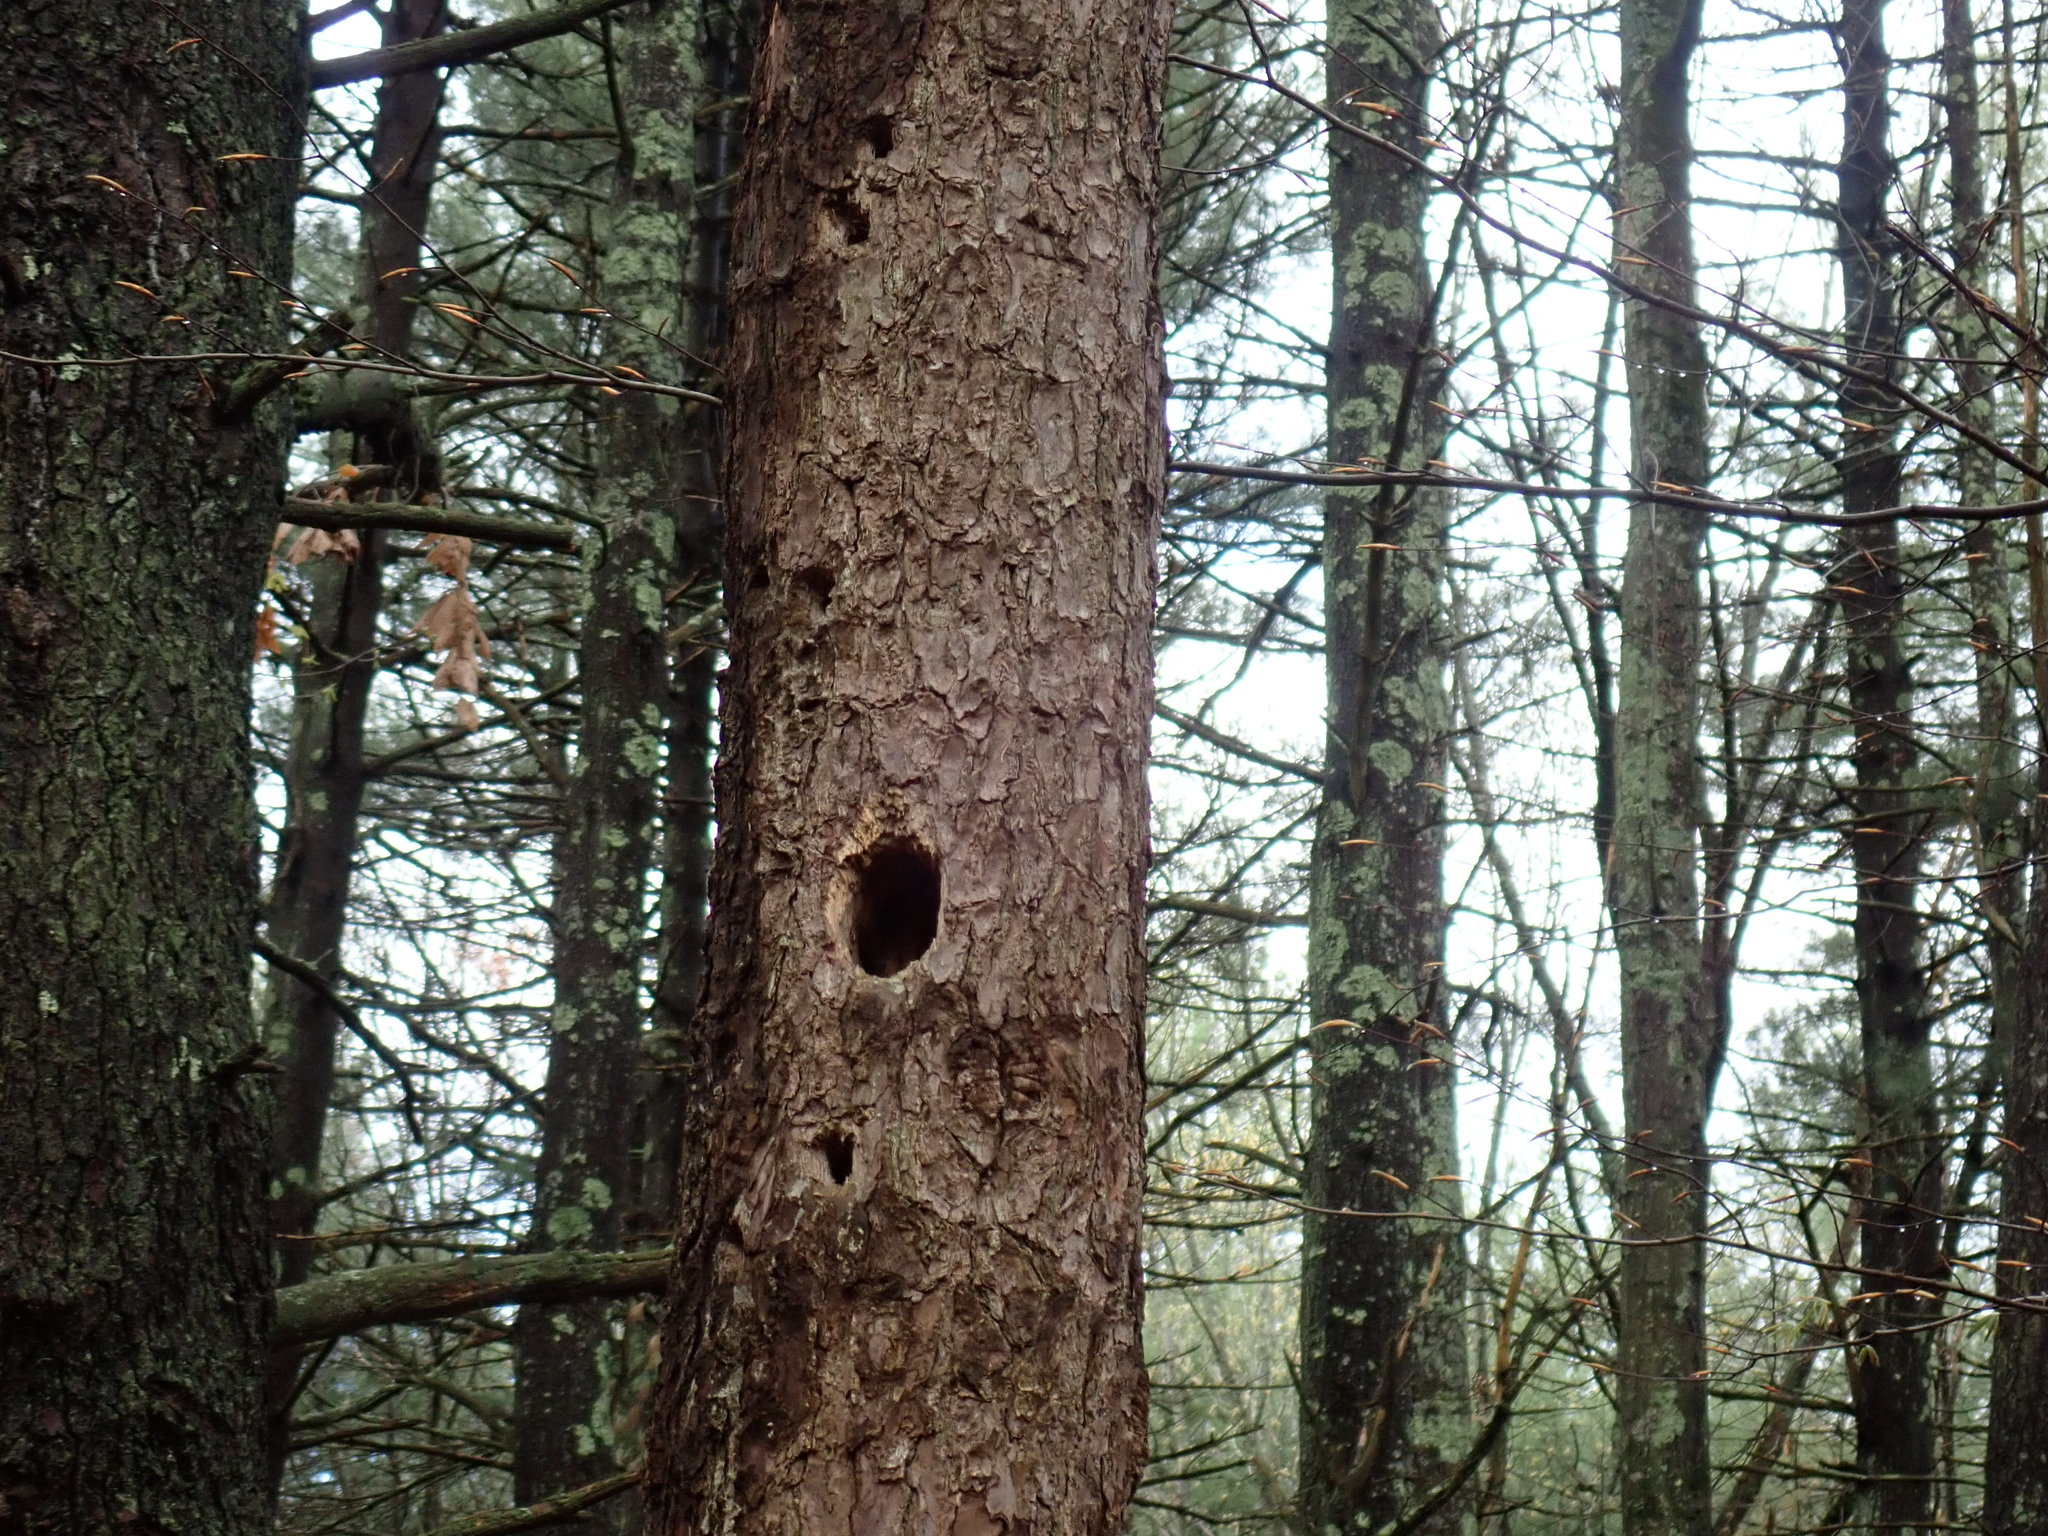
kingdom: Animalia
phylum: Chordata
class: Aves
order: Piciformes
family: Picidae
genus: Dryocopus
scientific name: Dryocopus pileatus
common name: Pileated woodpecker
